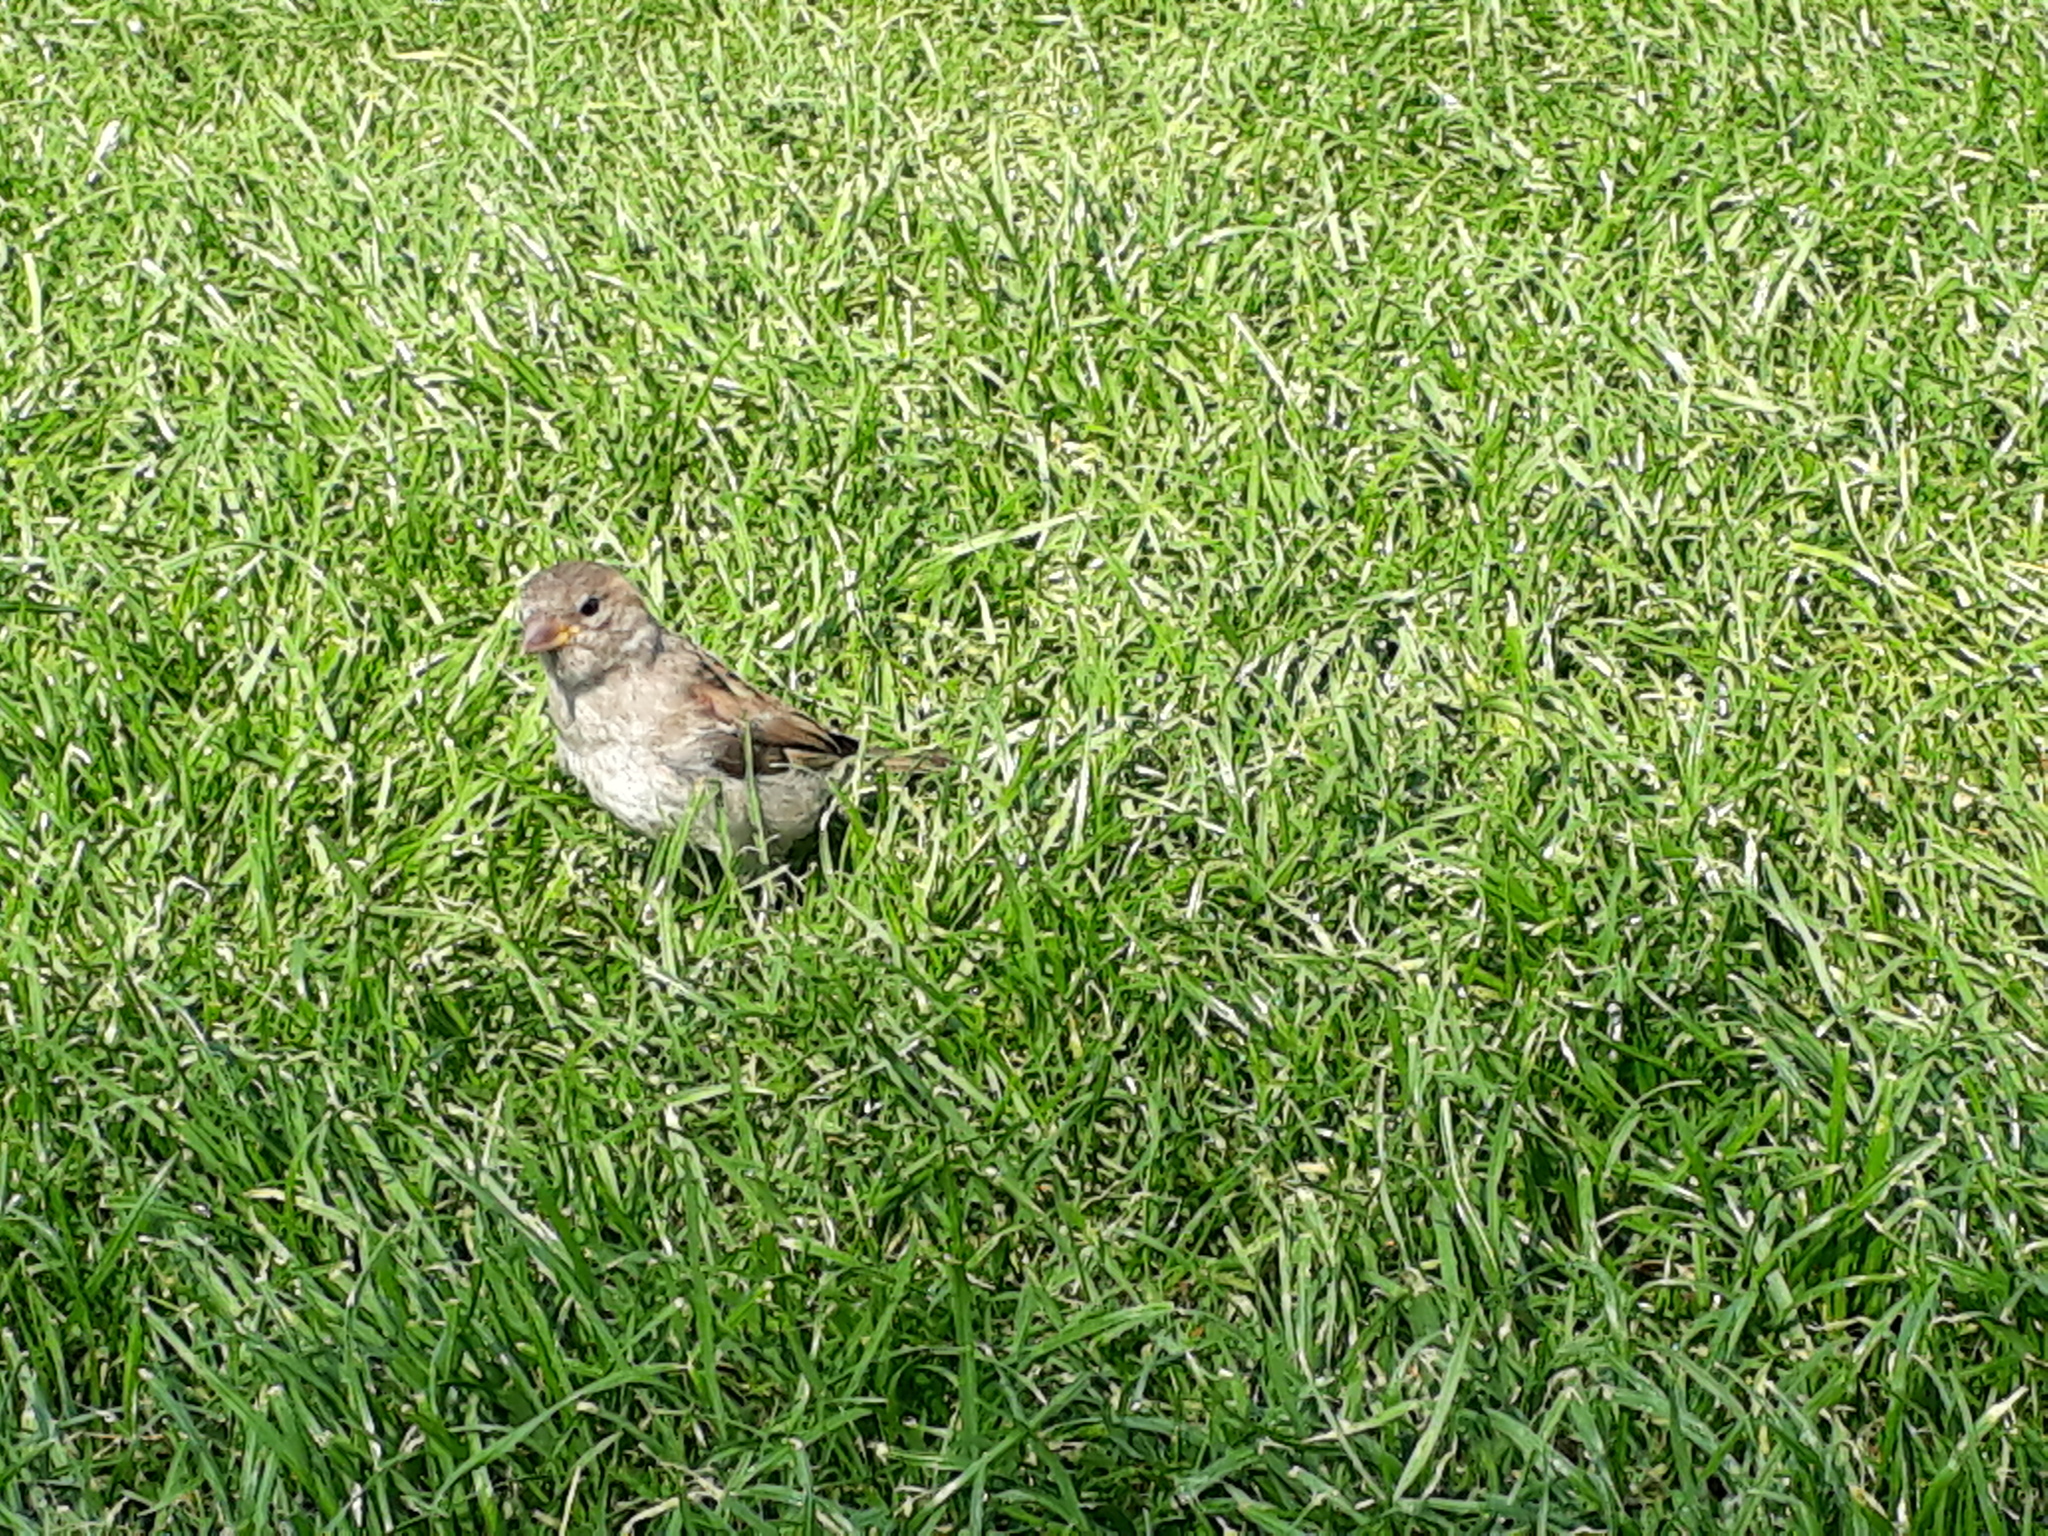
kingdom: Animalia
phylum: Chordata
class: Aves
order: Passeriformes
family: Passeridae
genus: Passer
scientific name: Passer domesticus
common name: House sparrow
